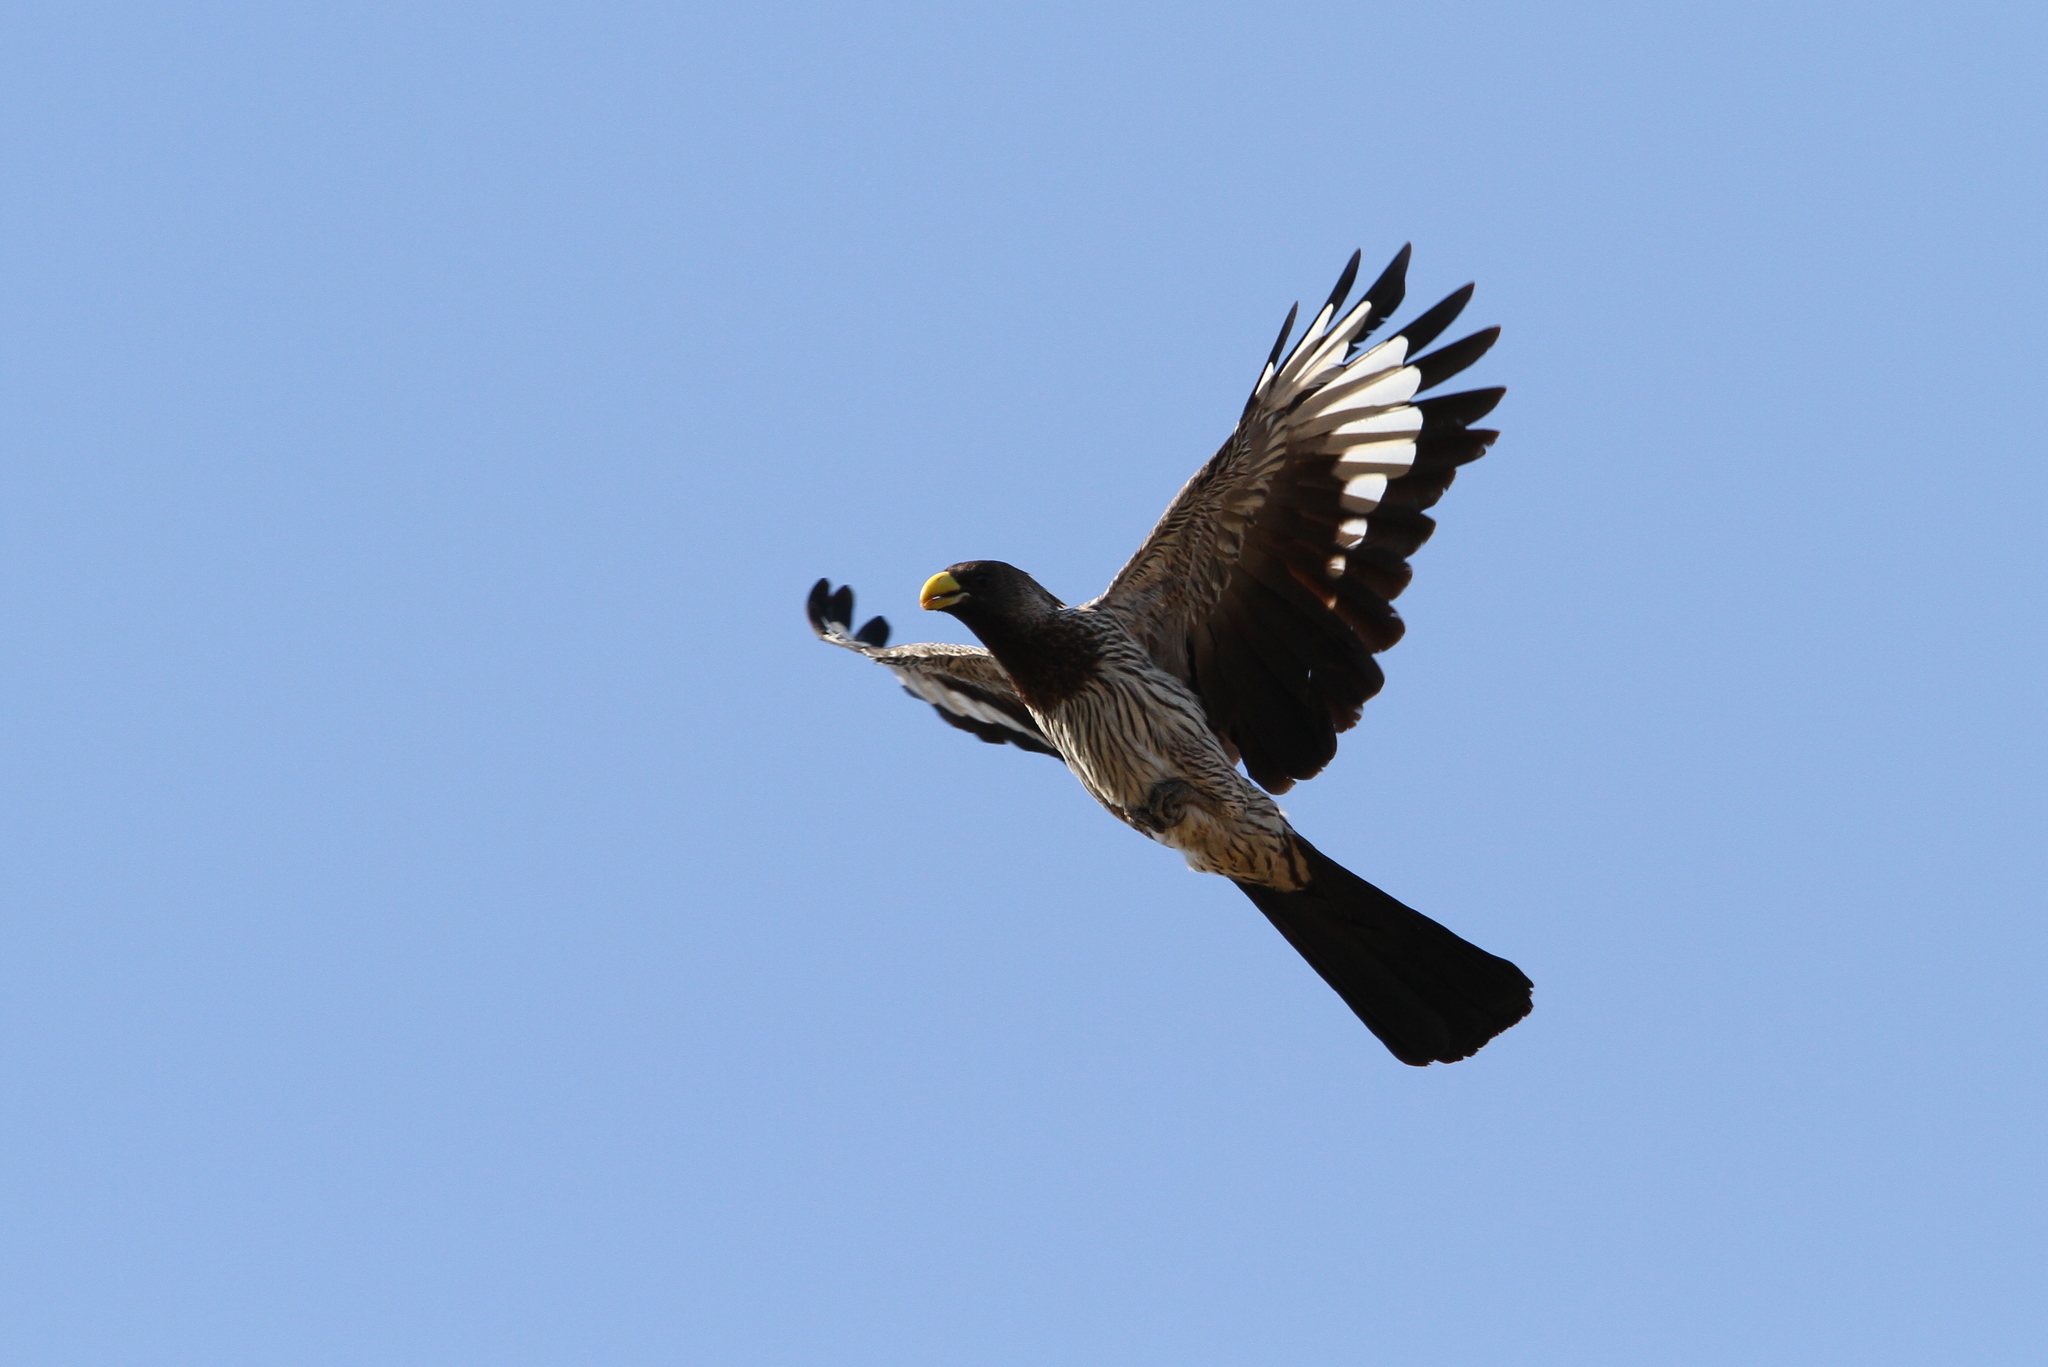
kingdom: Animalia
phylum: Chordata
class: Aves
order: Musophagiformes
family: Musophagidae
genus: Crinifer
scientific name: Crinifer piscator
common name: Western plantain-eater
